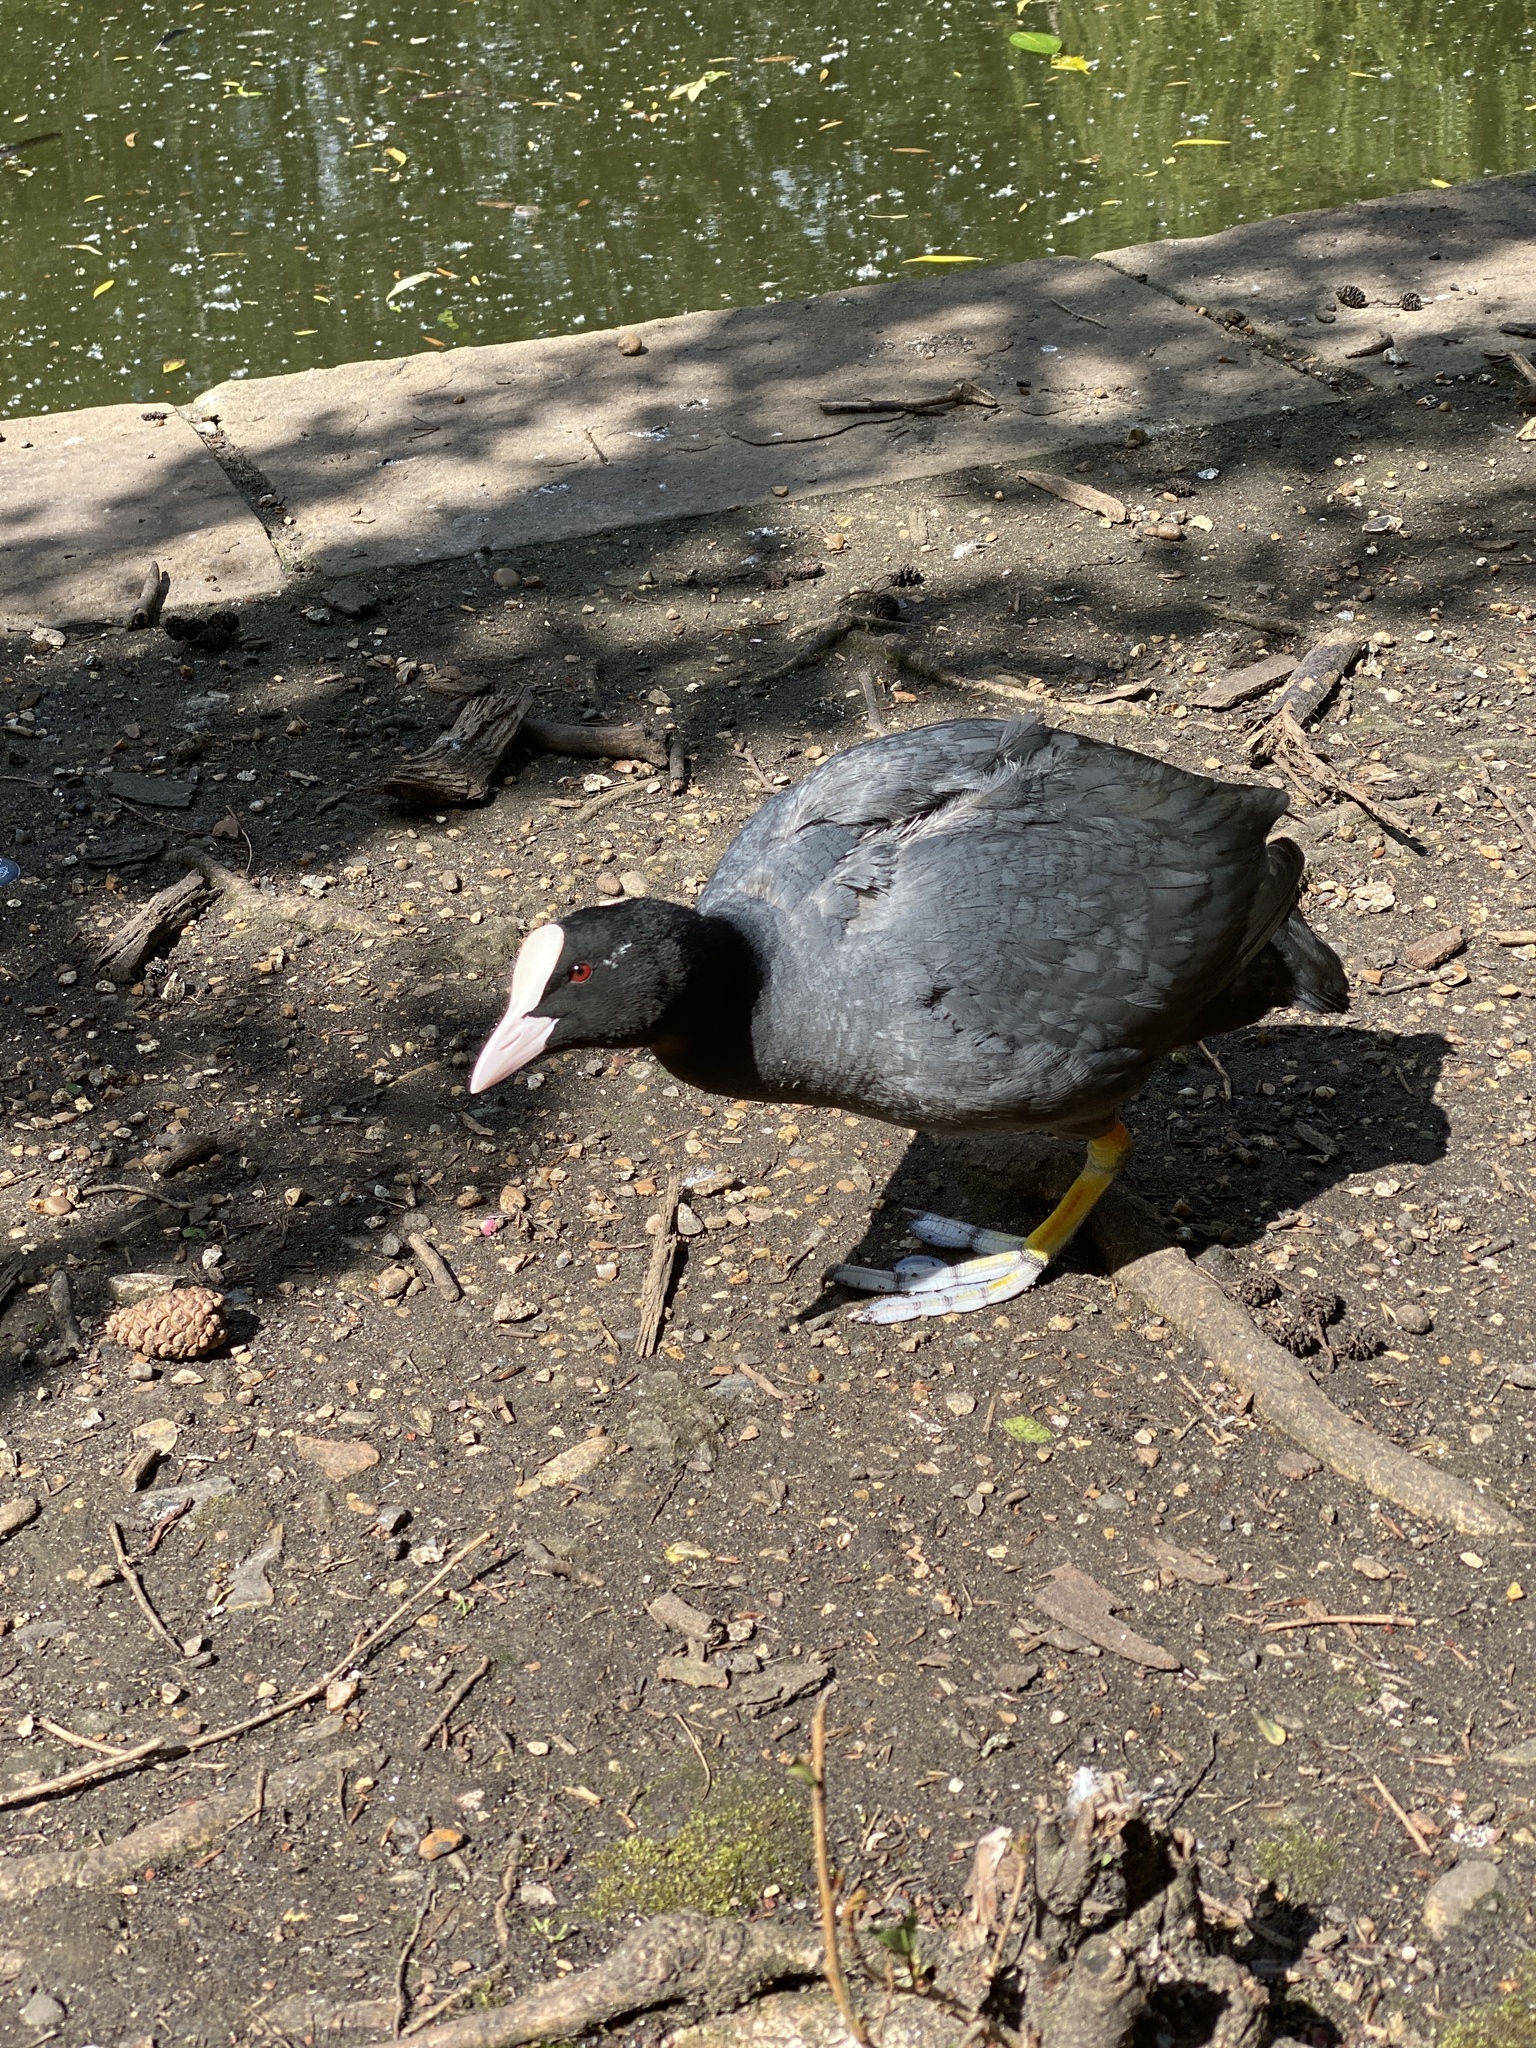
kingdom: Animalia
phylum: Chordata
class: Aves
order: Gruiformes
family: Rallidae
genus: Fulica
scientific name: Fulica atra
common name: Eurasian coot
